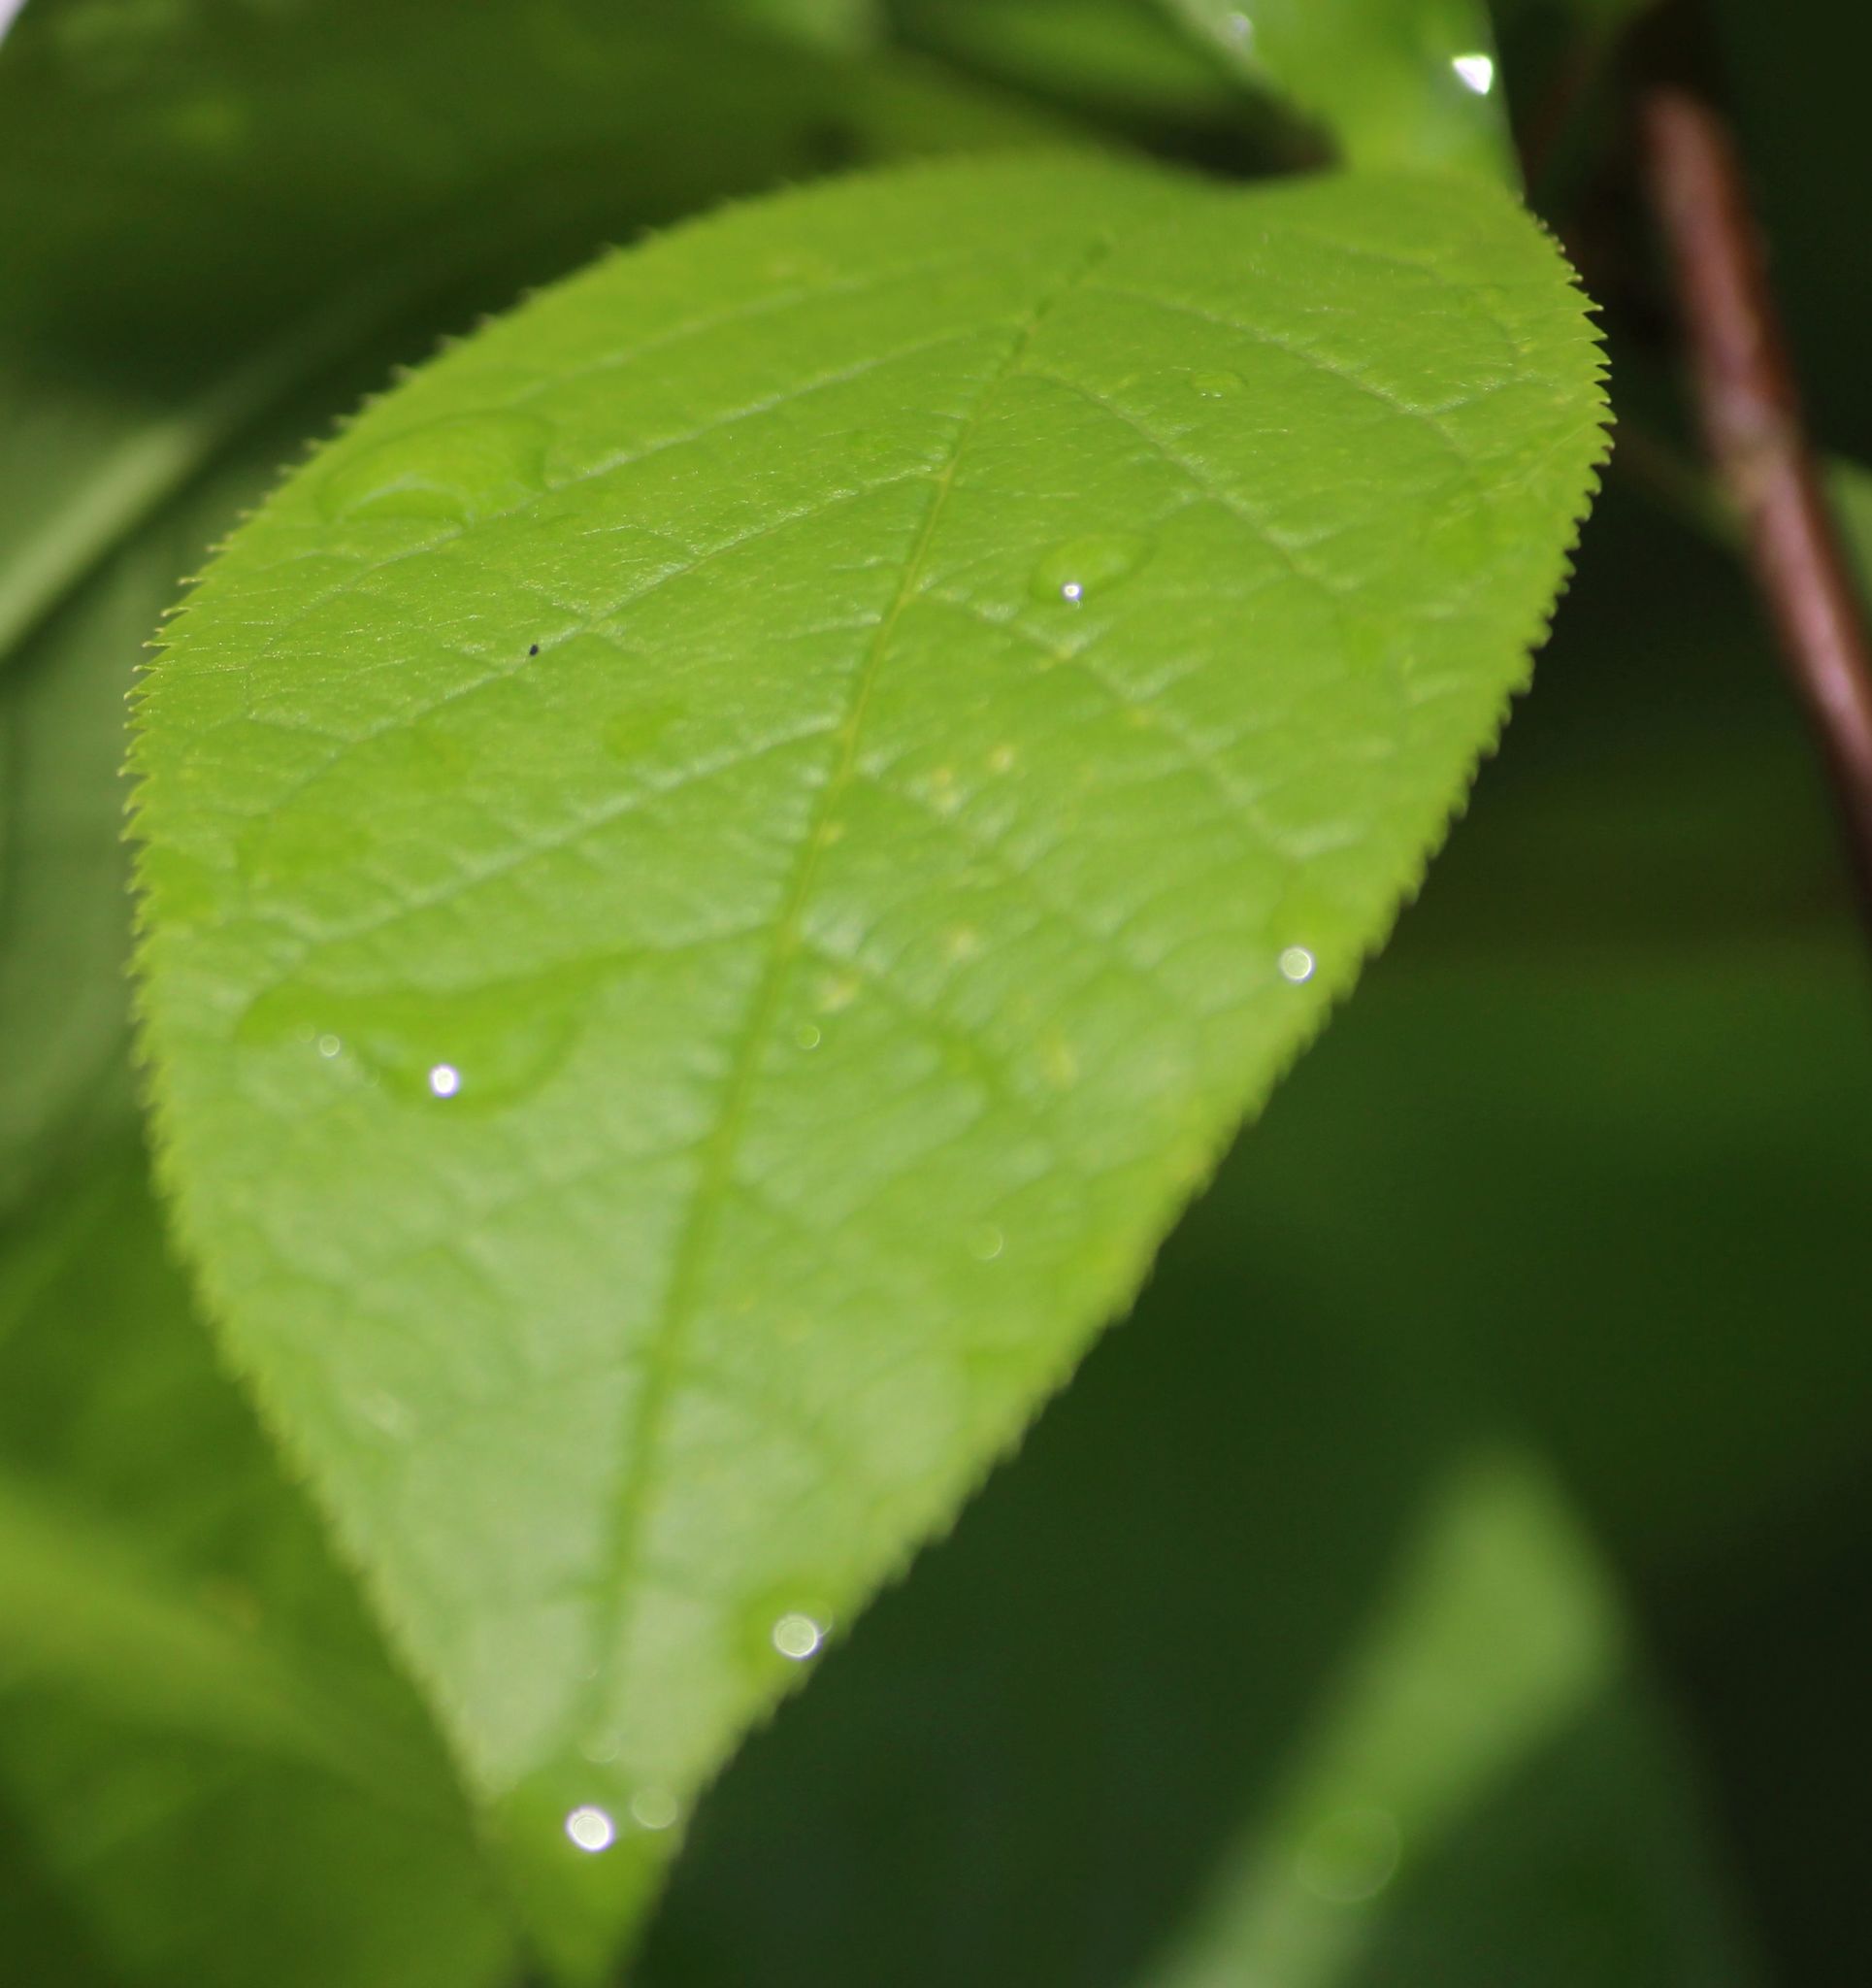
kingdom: Plantae
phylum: Tracheophyta
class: Magnoliopsida
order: Rosales
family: Rosaceae
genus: Prunus
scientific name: Prunus padus
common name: Bird cherry
